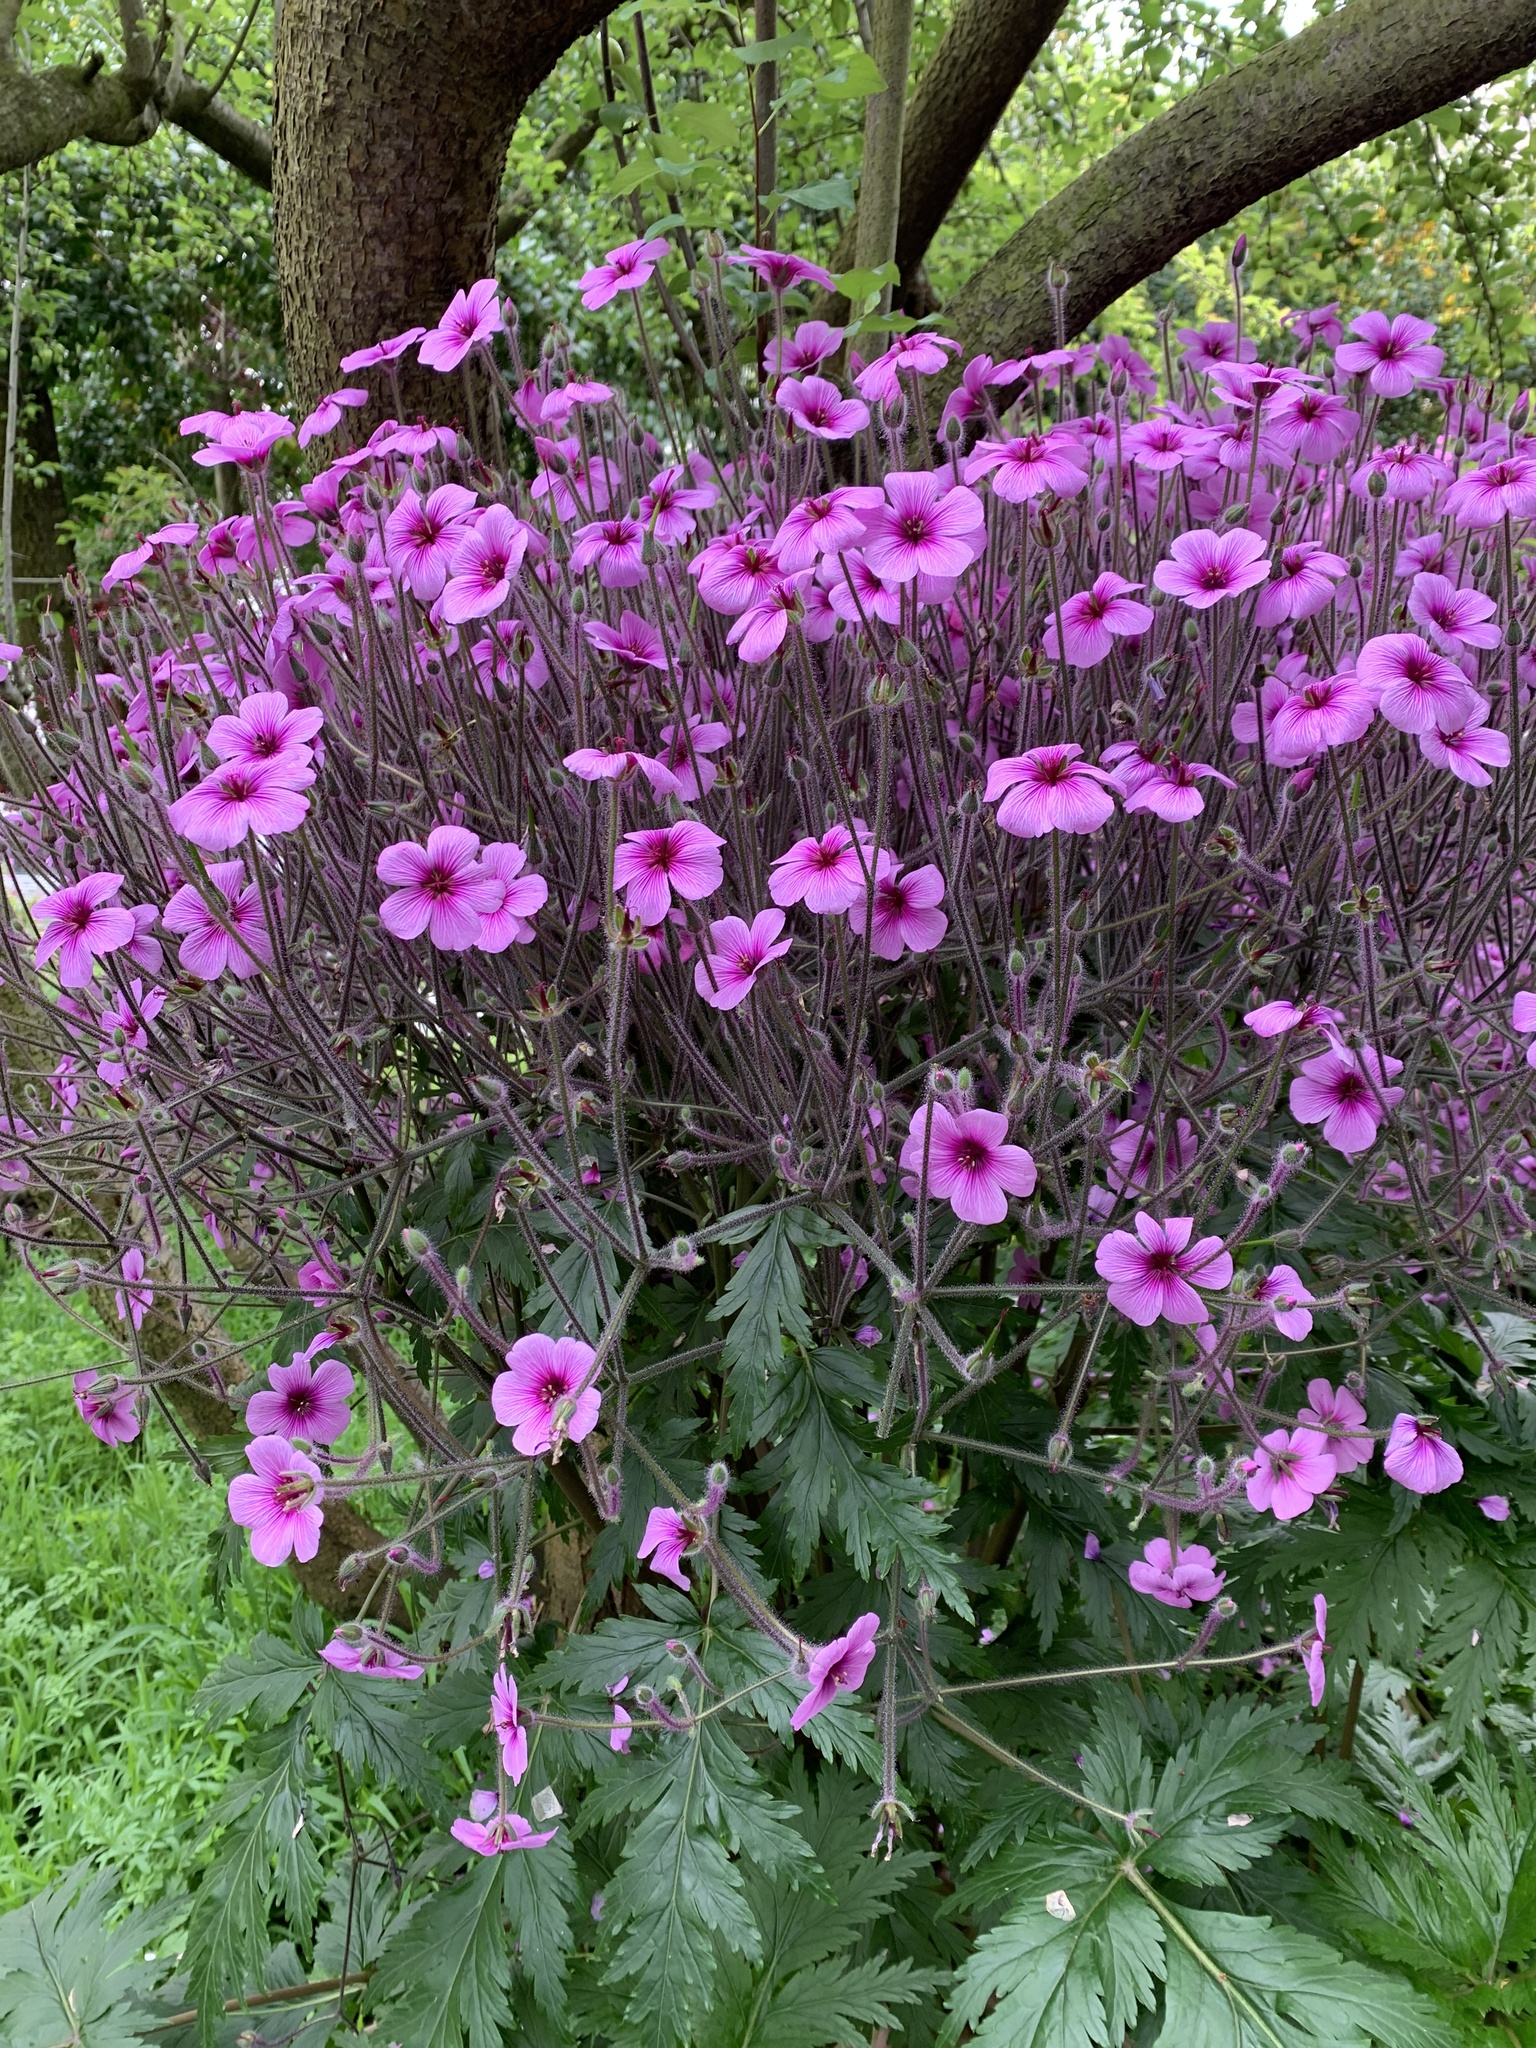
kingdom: Plantae
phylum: Tracheophyta
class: Magnoliopsida
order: Geraniales
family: Geraniaceae
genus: Geranium
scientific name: Geranium maderense
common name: Giant herb-robert
